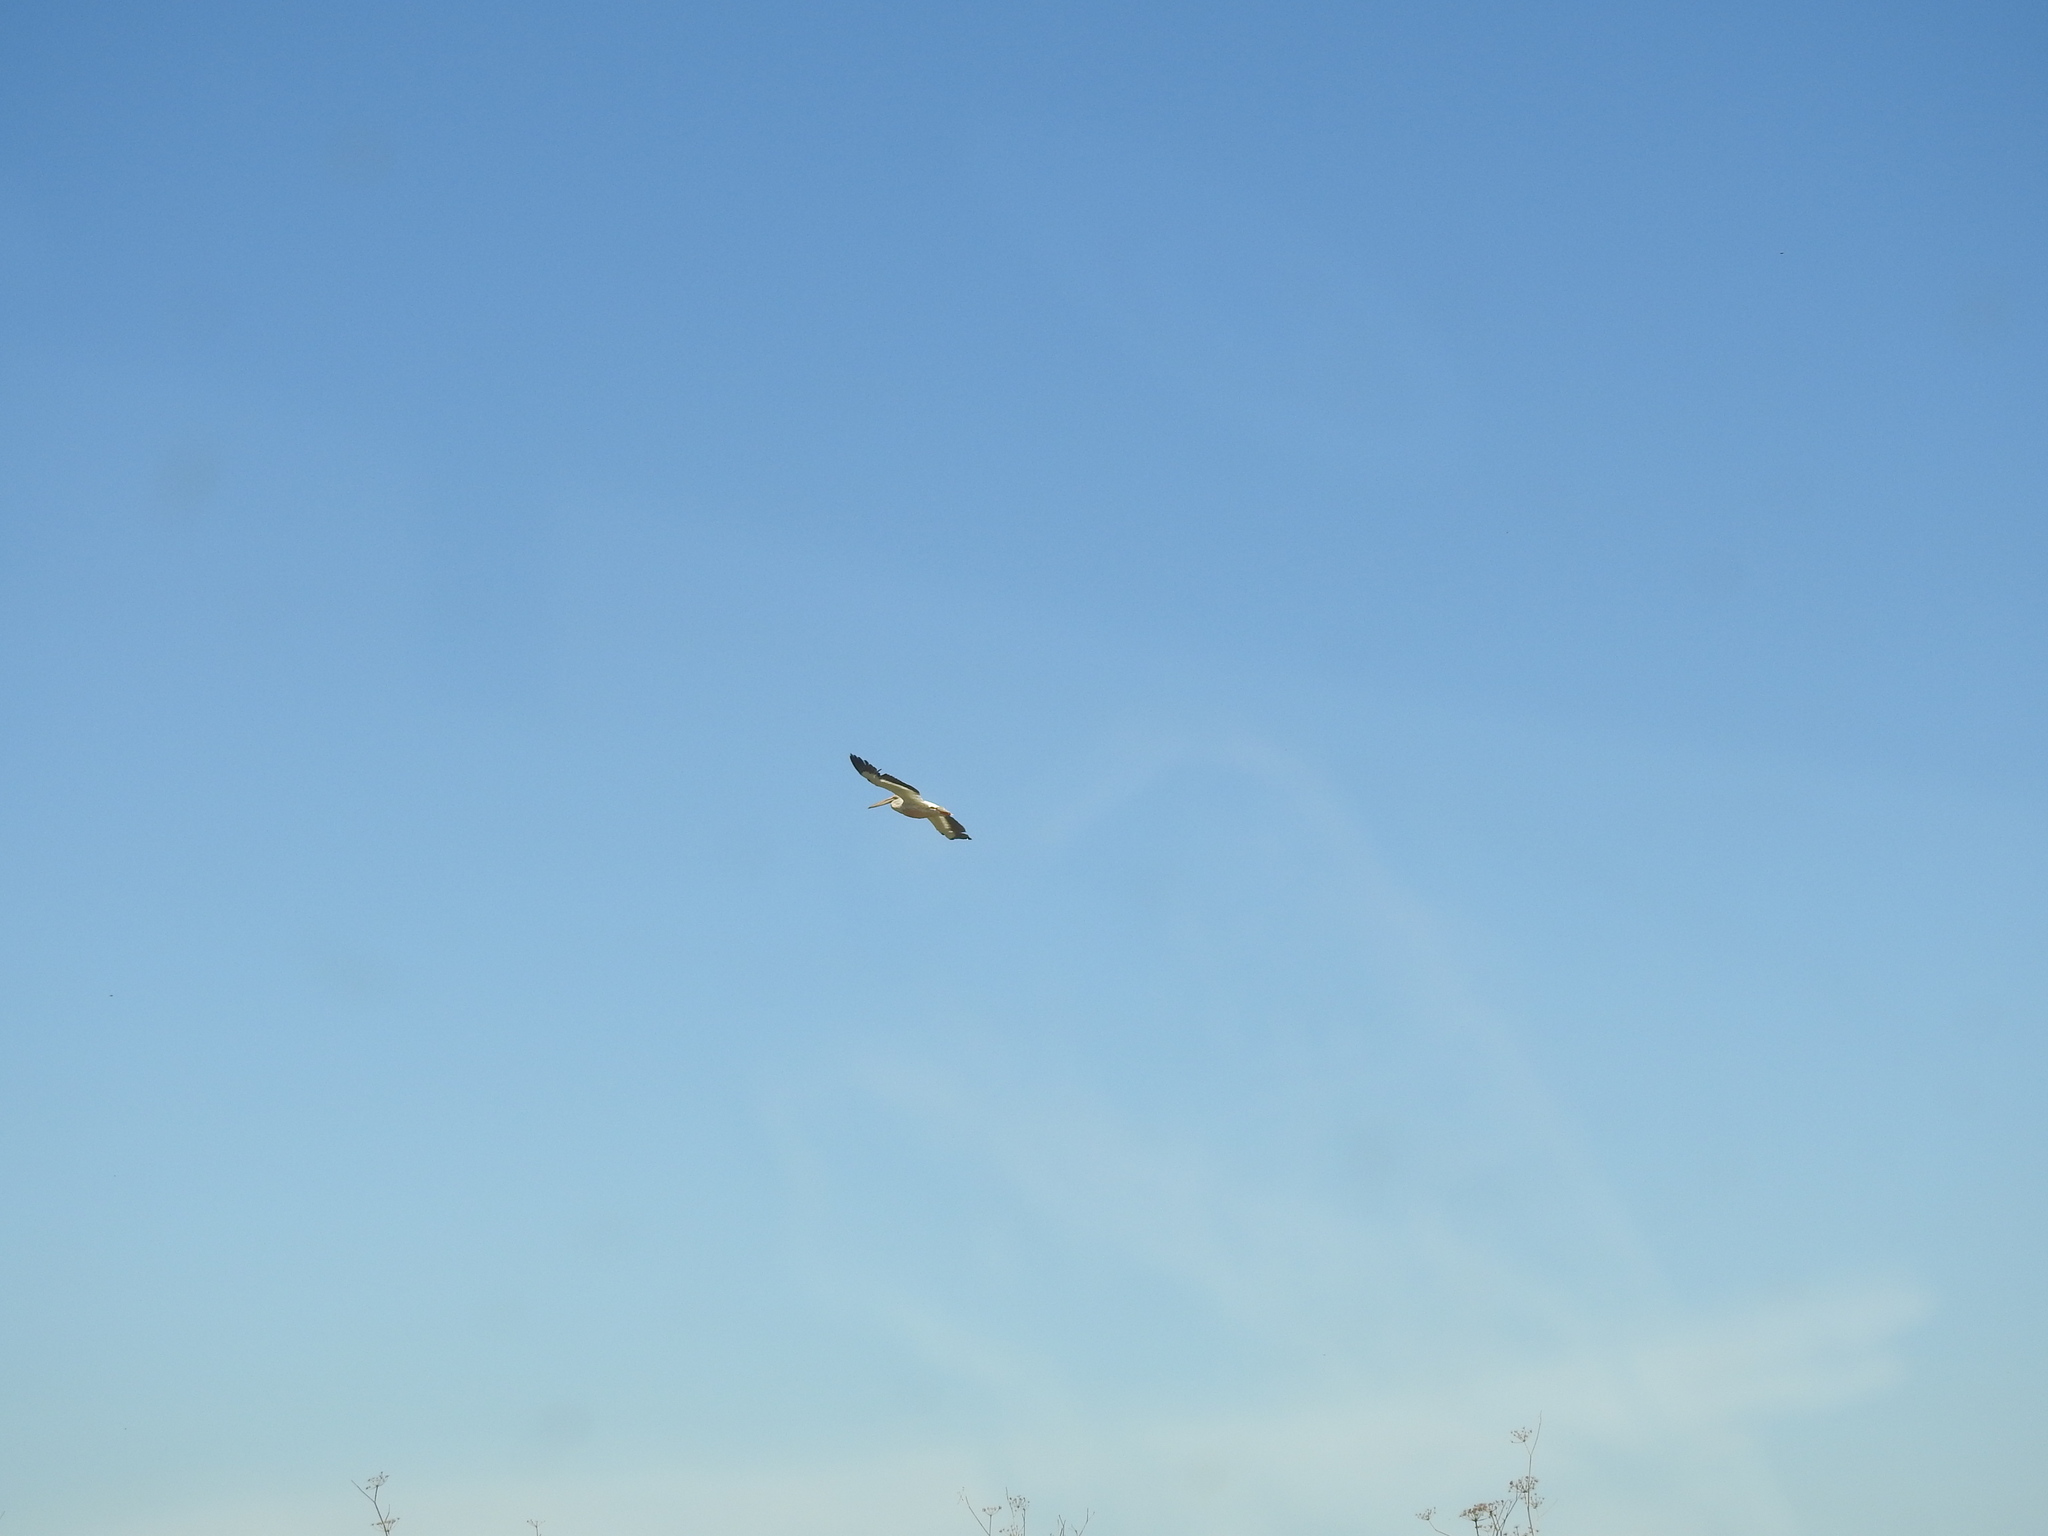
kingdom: Animalia
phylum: Chordata
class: Aves
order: Pelecaniformes
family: Pelecanidae
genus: Pelecanus
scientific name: Pelecanus erythrorhynchos
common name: American white pelican
